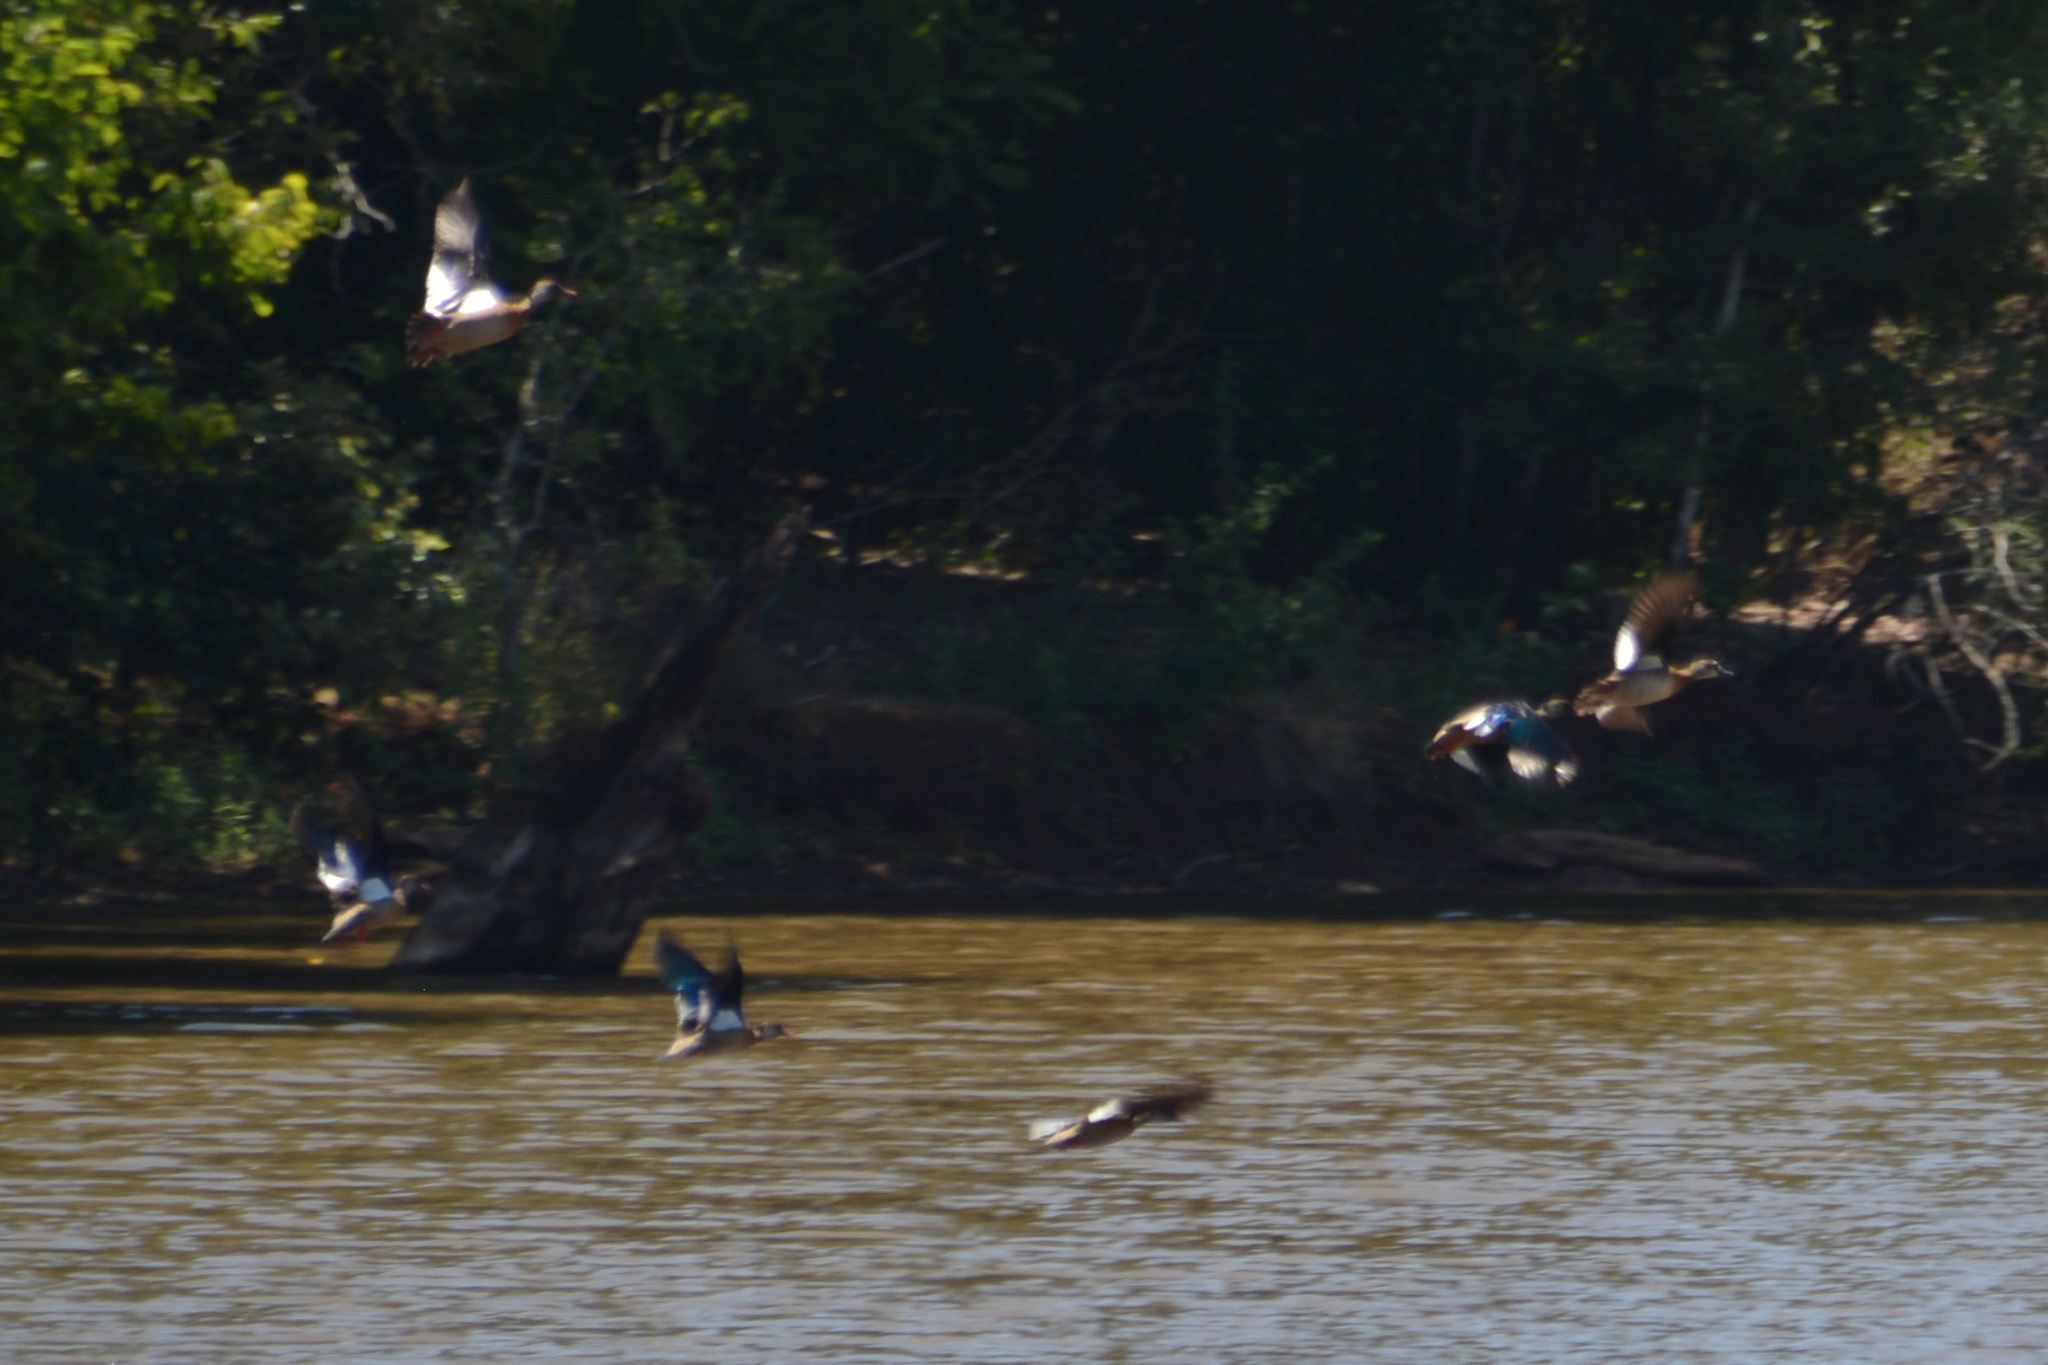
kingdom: Animalia
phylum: Chordata
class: Aves
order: Anseriformes
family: Anatidae
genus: Amazonetta
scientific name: Amazonetta brasiliensis
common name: Brazilian teal
